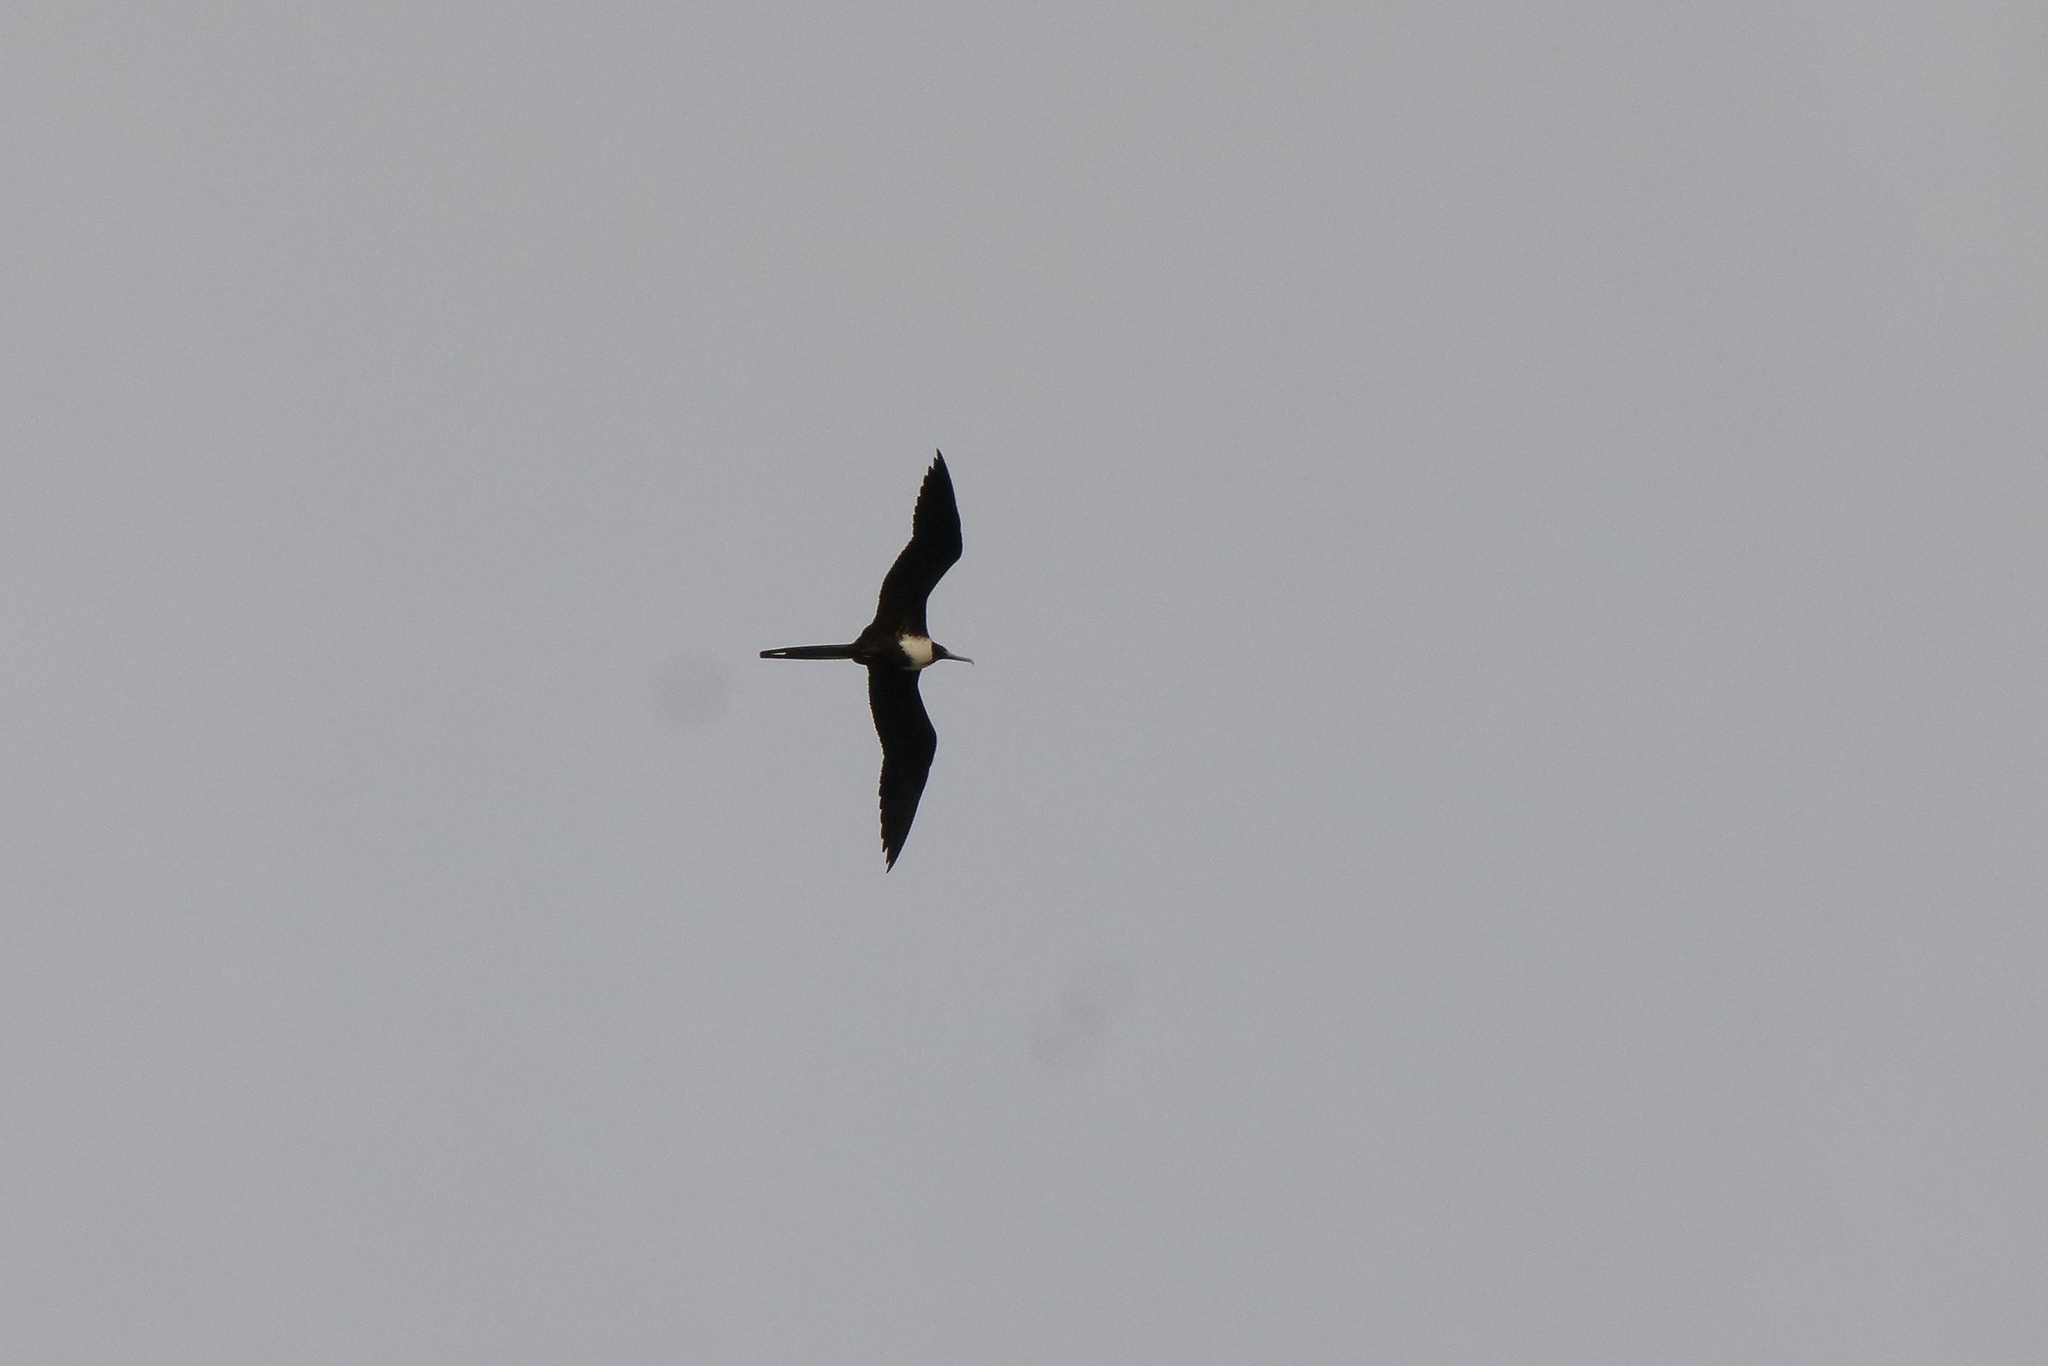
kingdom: Animalia
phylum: Chordata
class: Aves
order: Suliformes
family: Fregatidae
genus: Fregata
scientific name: Fregata magnificens
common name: Magnificent frigatebird
